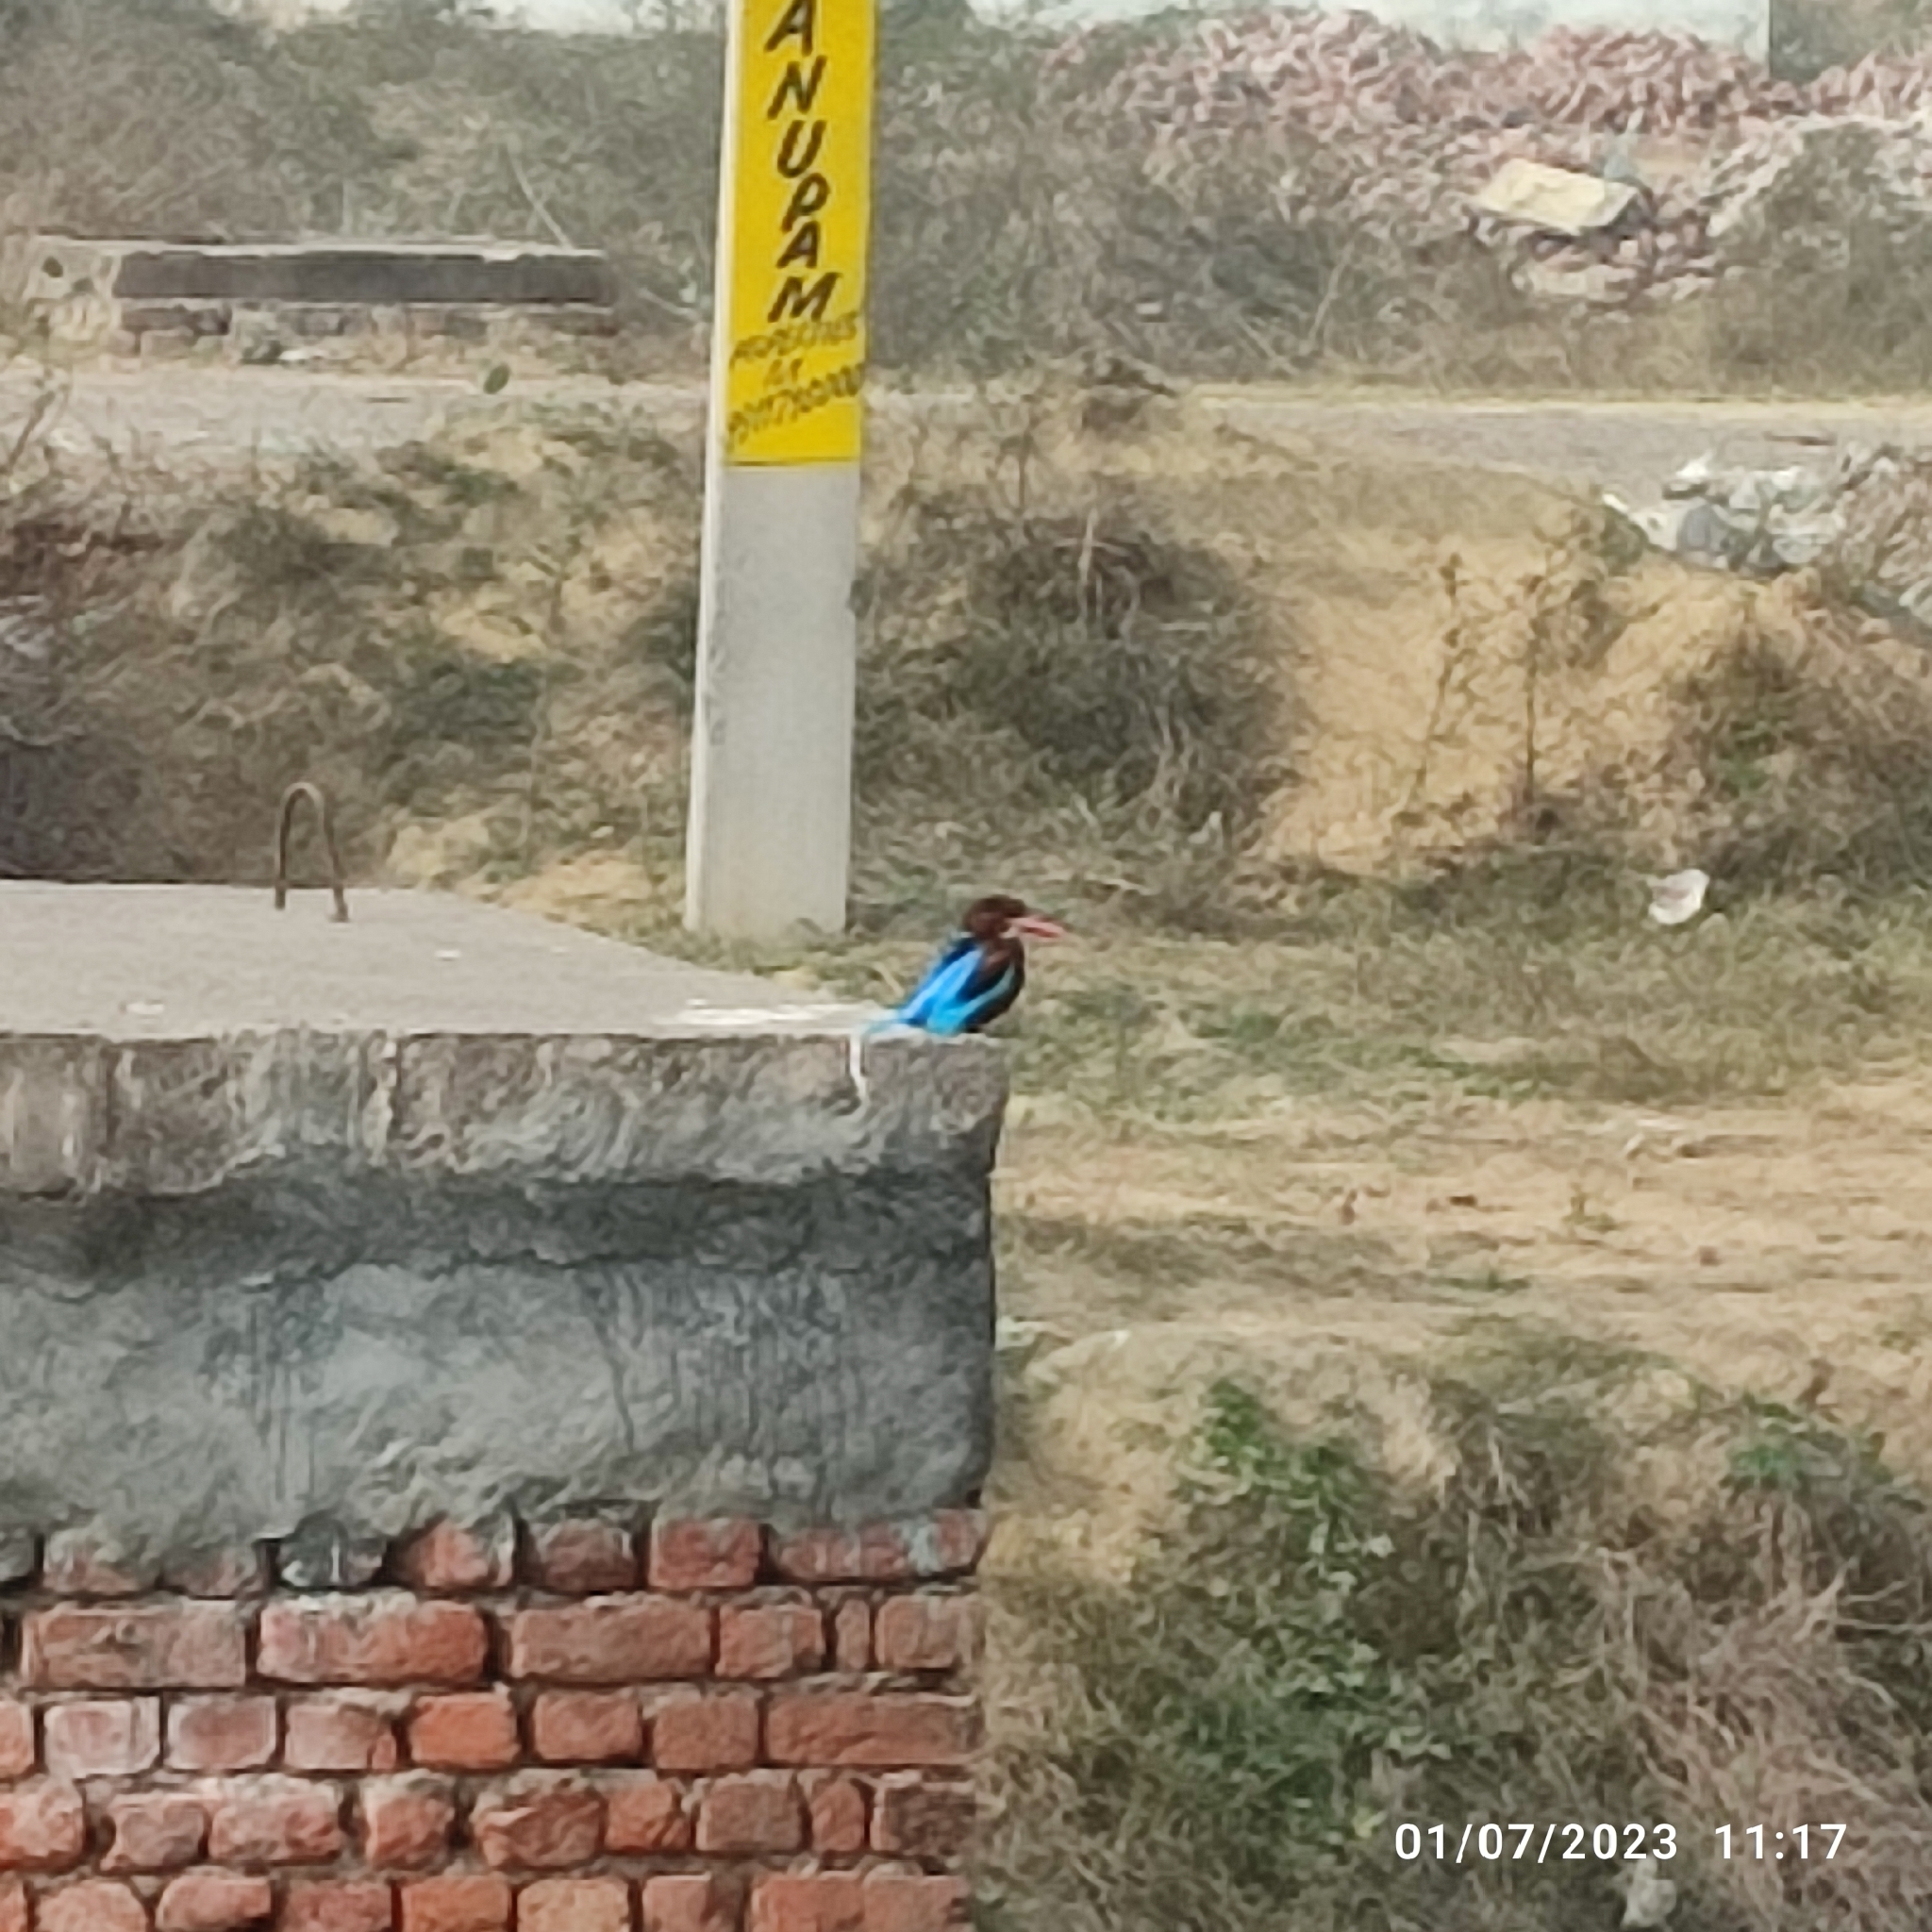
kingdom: Animalia
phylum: Chordata
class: Aves
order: Coraciiformes
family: Alcedinidae
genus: Halcyon
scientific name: Halcyon smyrnensis
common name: White-throated kingfisher
